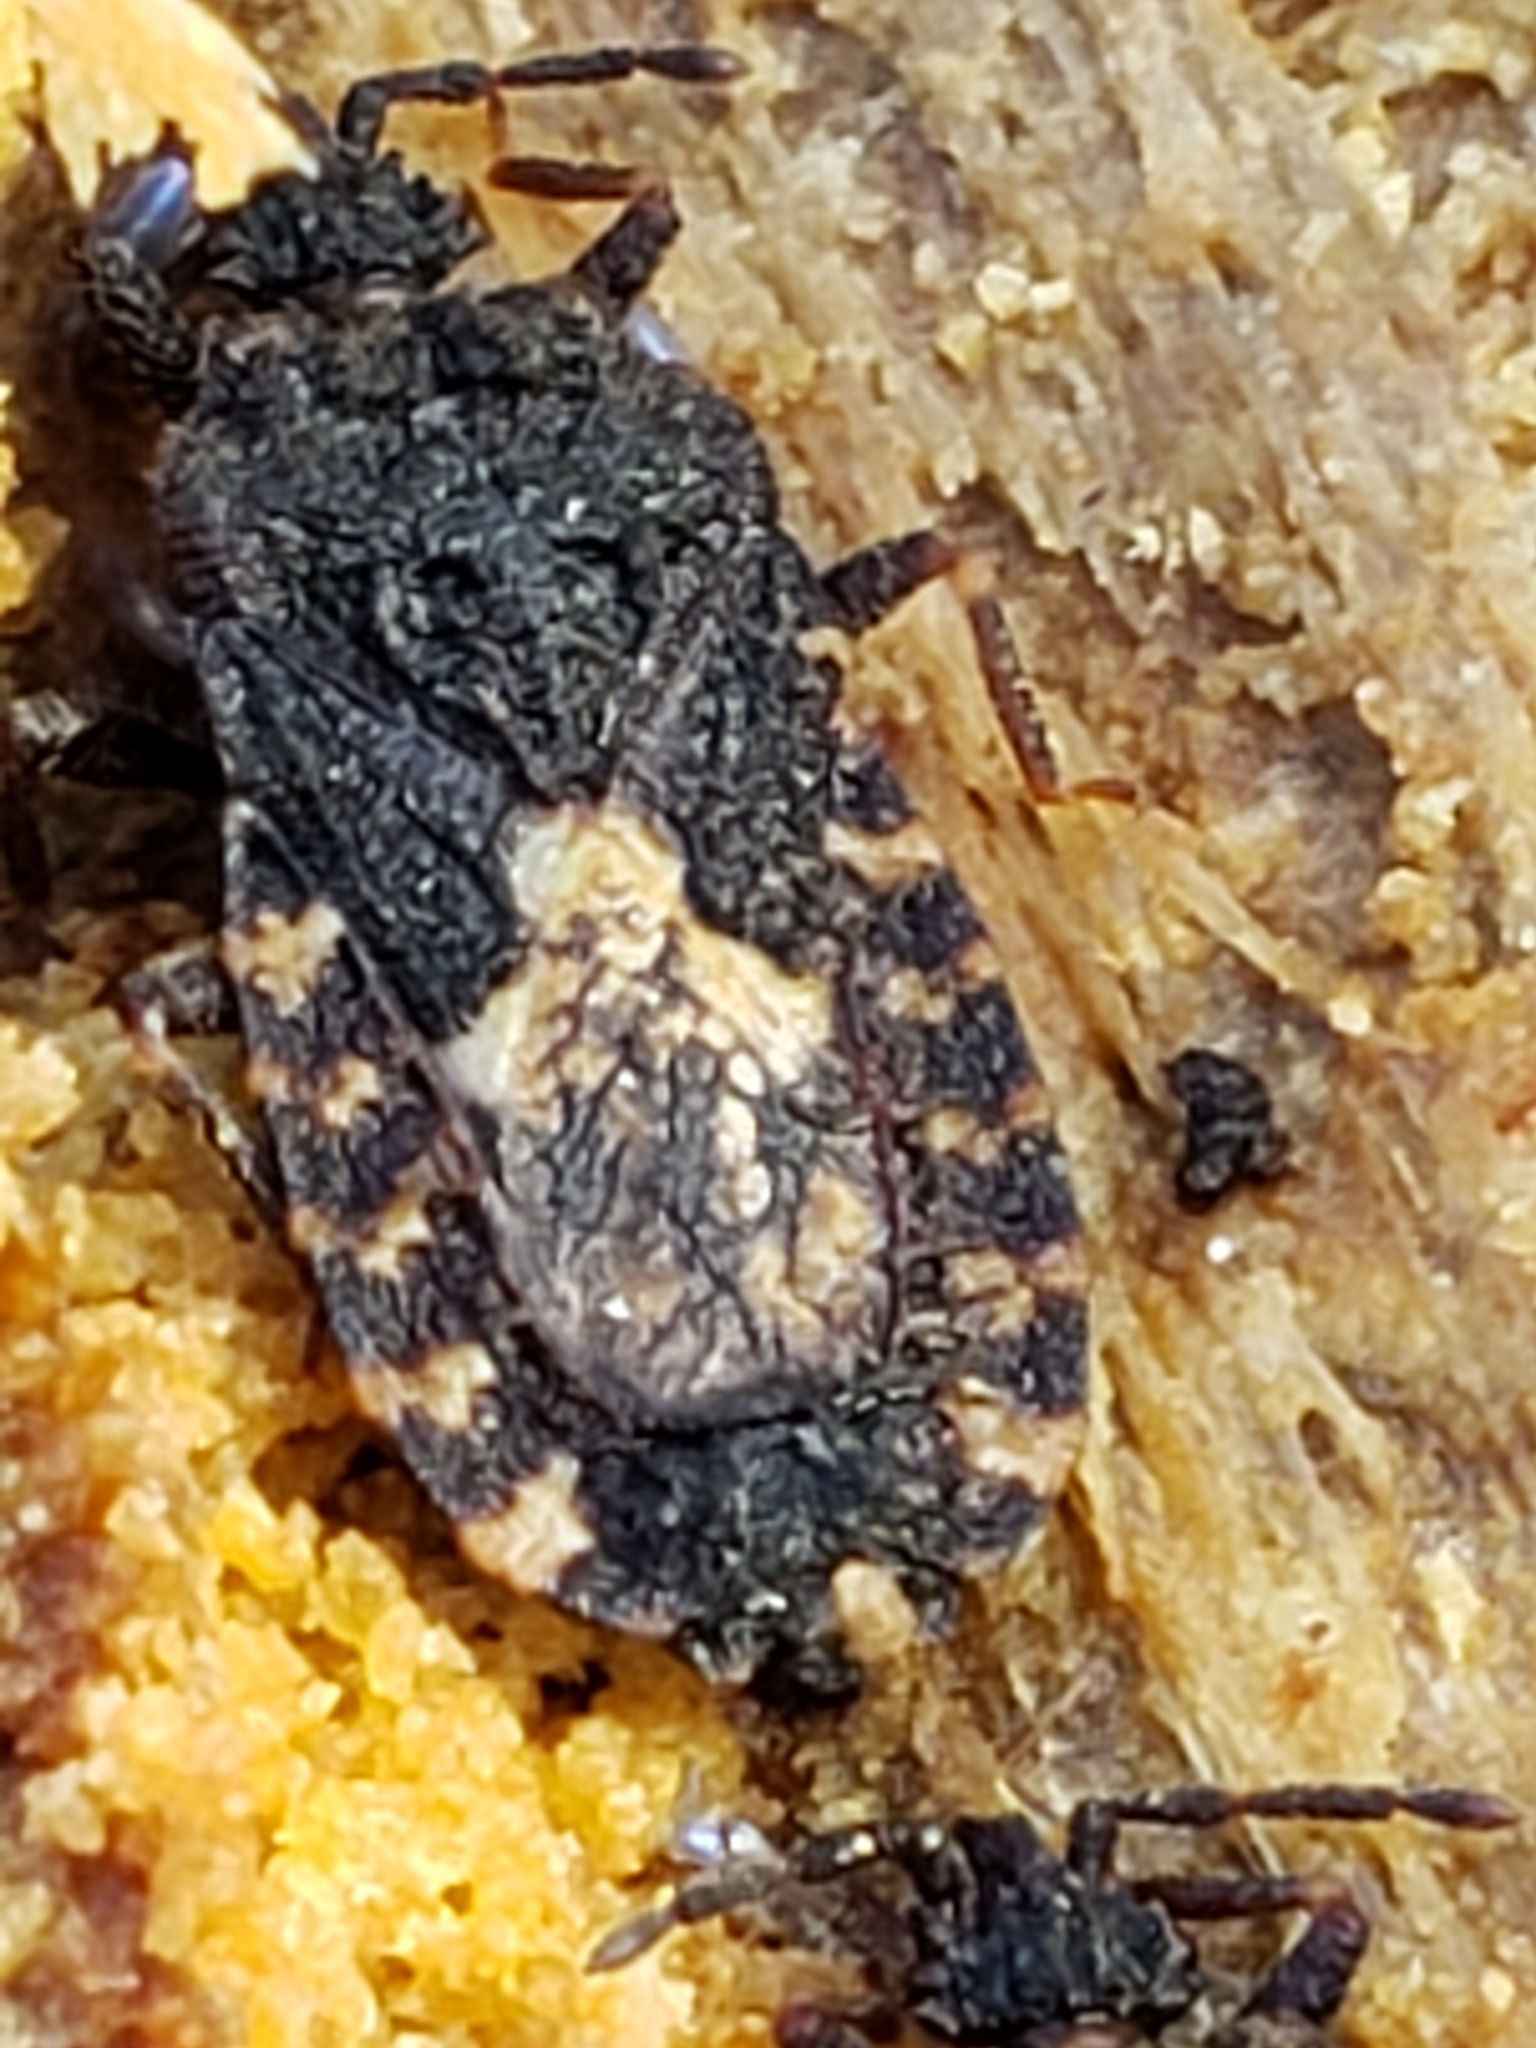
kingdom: Animalia
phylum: Arthropoda
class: Insecta
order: Hemiptera
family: Aradidae
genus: Mezira
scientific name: Mezira
